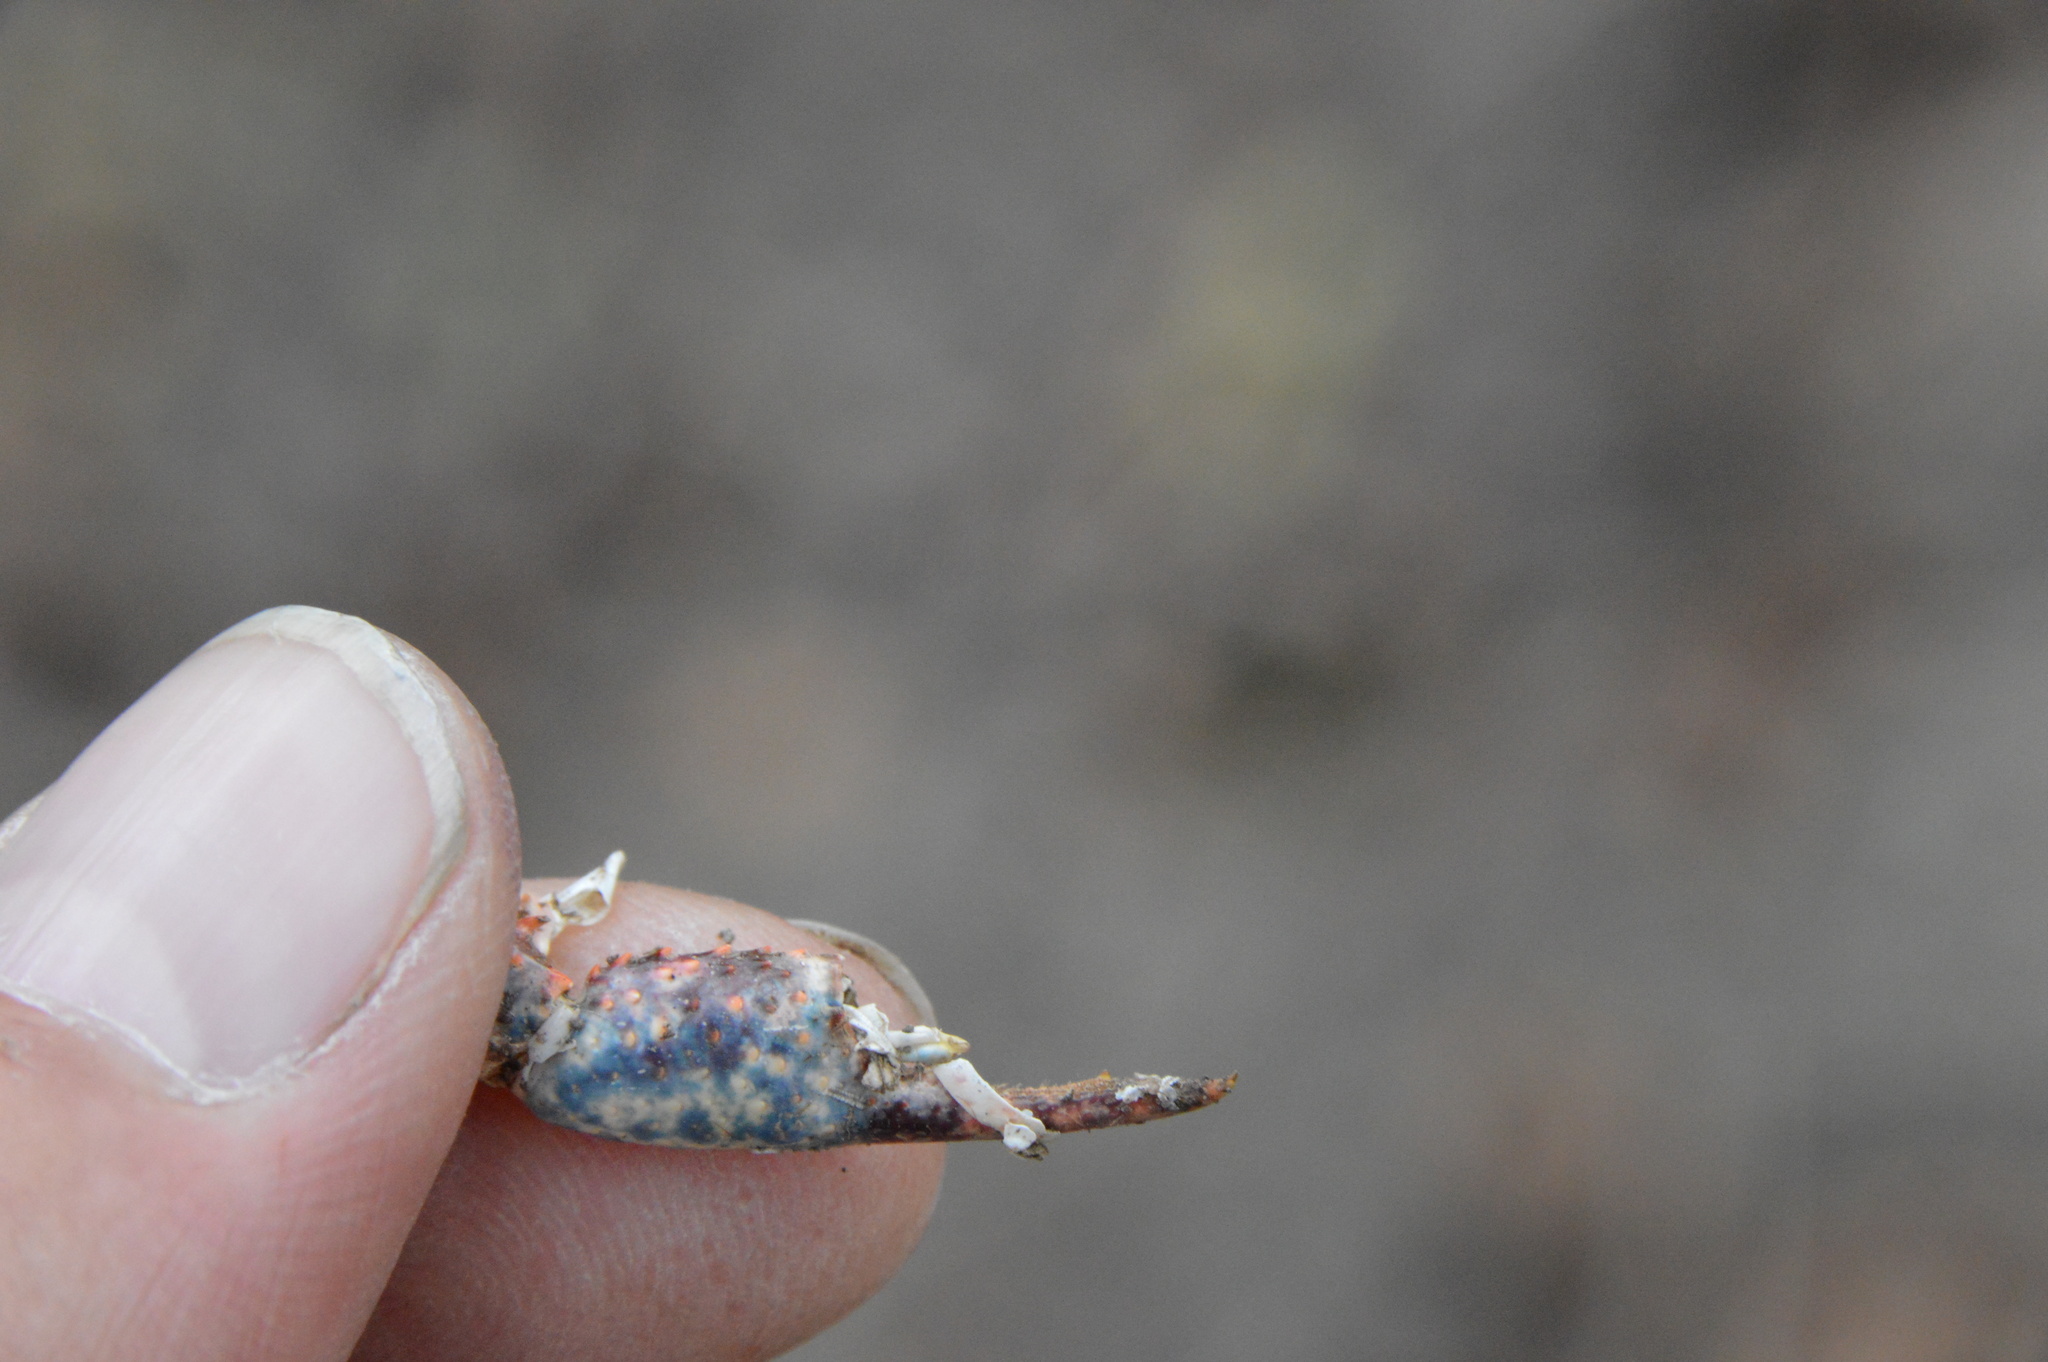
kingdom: Animalia
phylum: Arthropoda
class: Malacostraca
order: Decapoda
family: Cambaridae
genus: Procambarus
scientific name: Procambarus clarkii
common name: Red swamp crayfish
